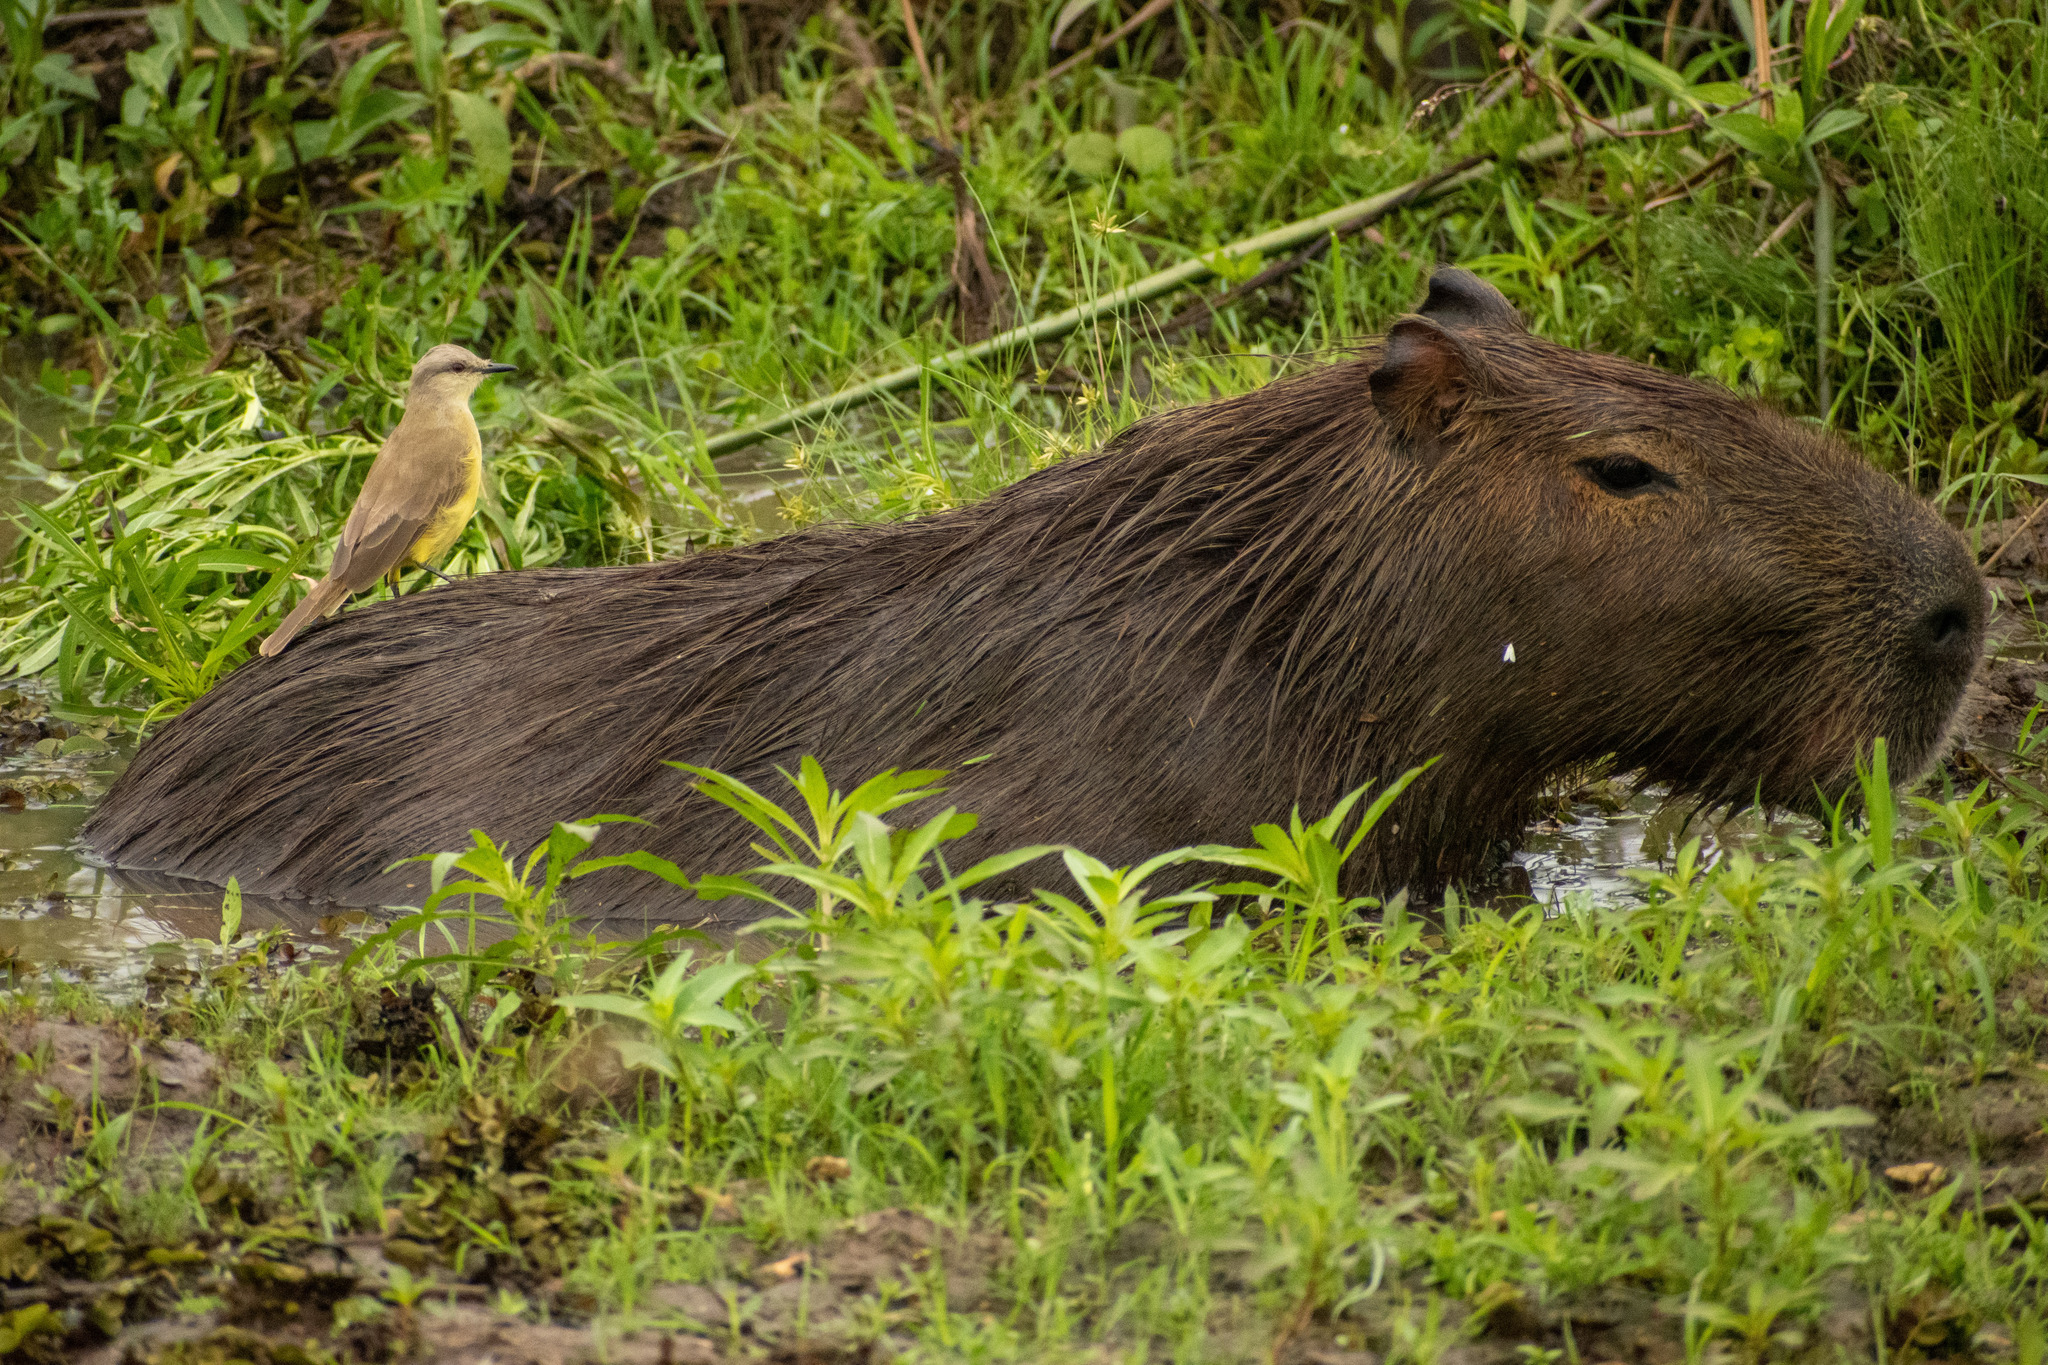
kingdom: Animalia
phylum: Chordata
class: Aves
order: Passeriformes
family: Tyrannidae
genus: Machetornis
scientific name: Machetornis rixosa
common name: Cattle tyrant
